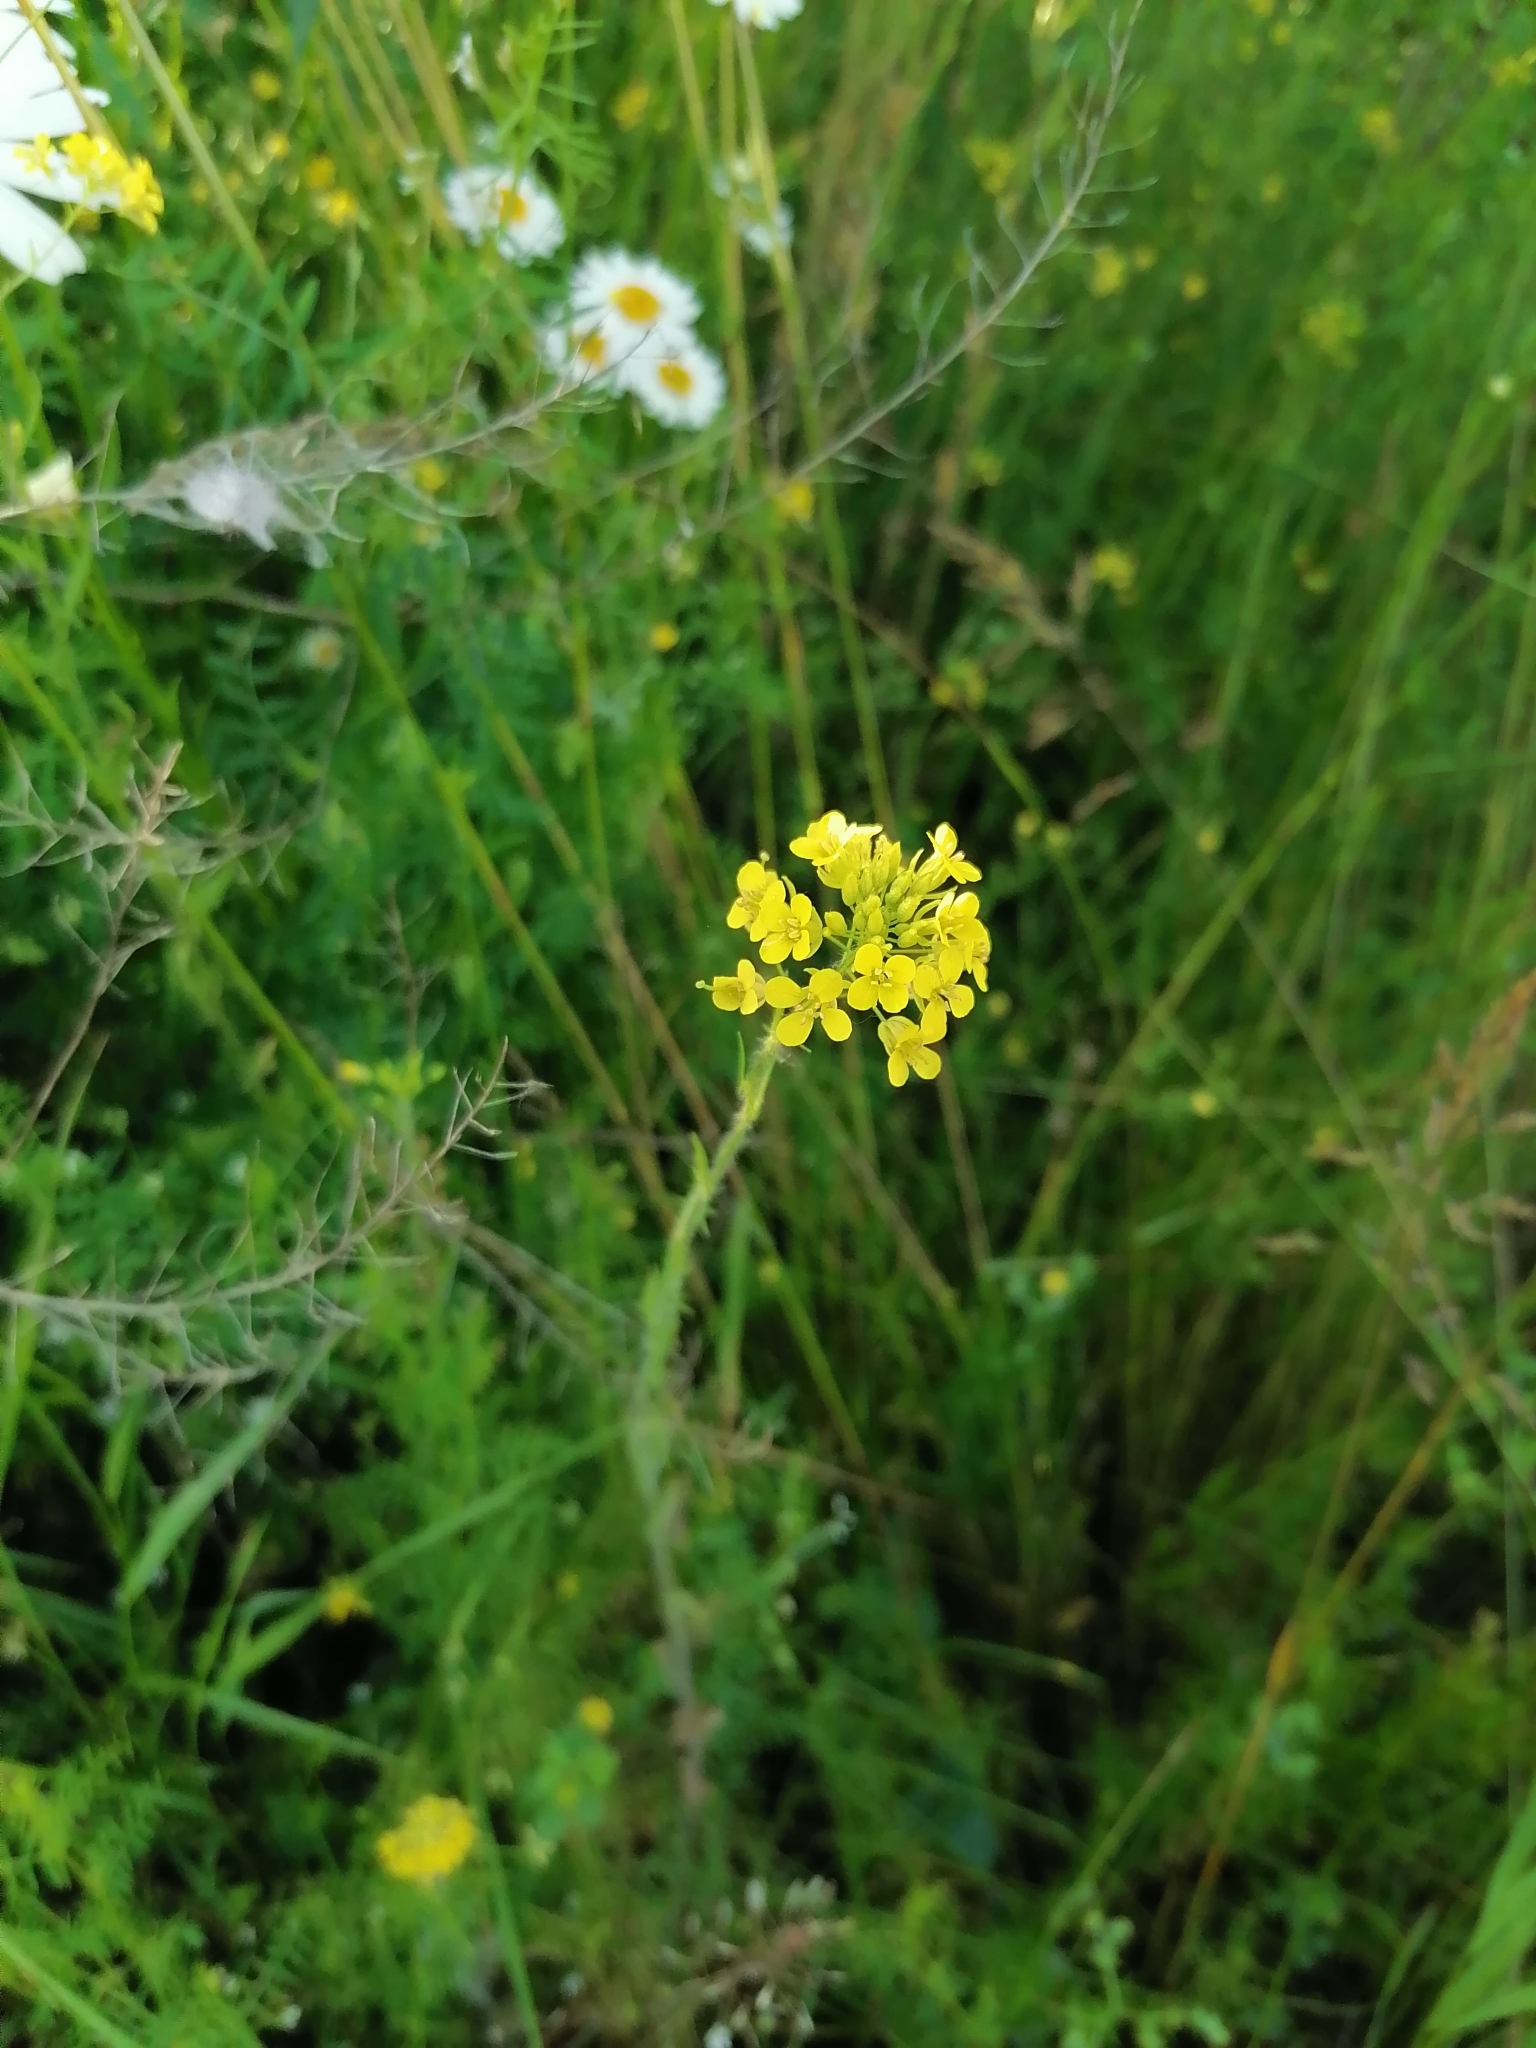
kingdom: Plantae
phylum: Tracheophyta
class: Magnoliopsida
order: Brassicales
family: Brassicaceae
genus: Sisymbrium
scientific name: Sisymbrium loeselii
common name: False london-rocket
